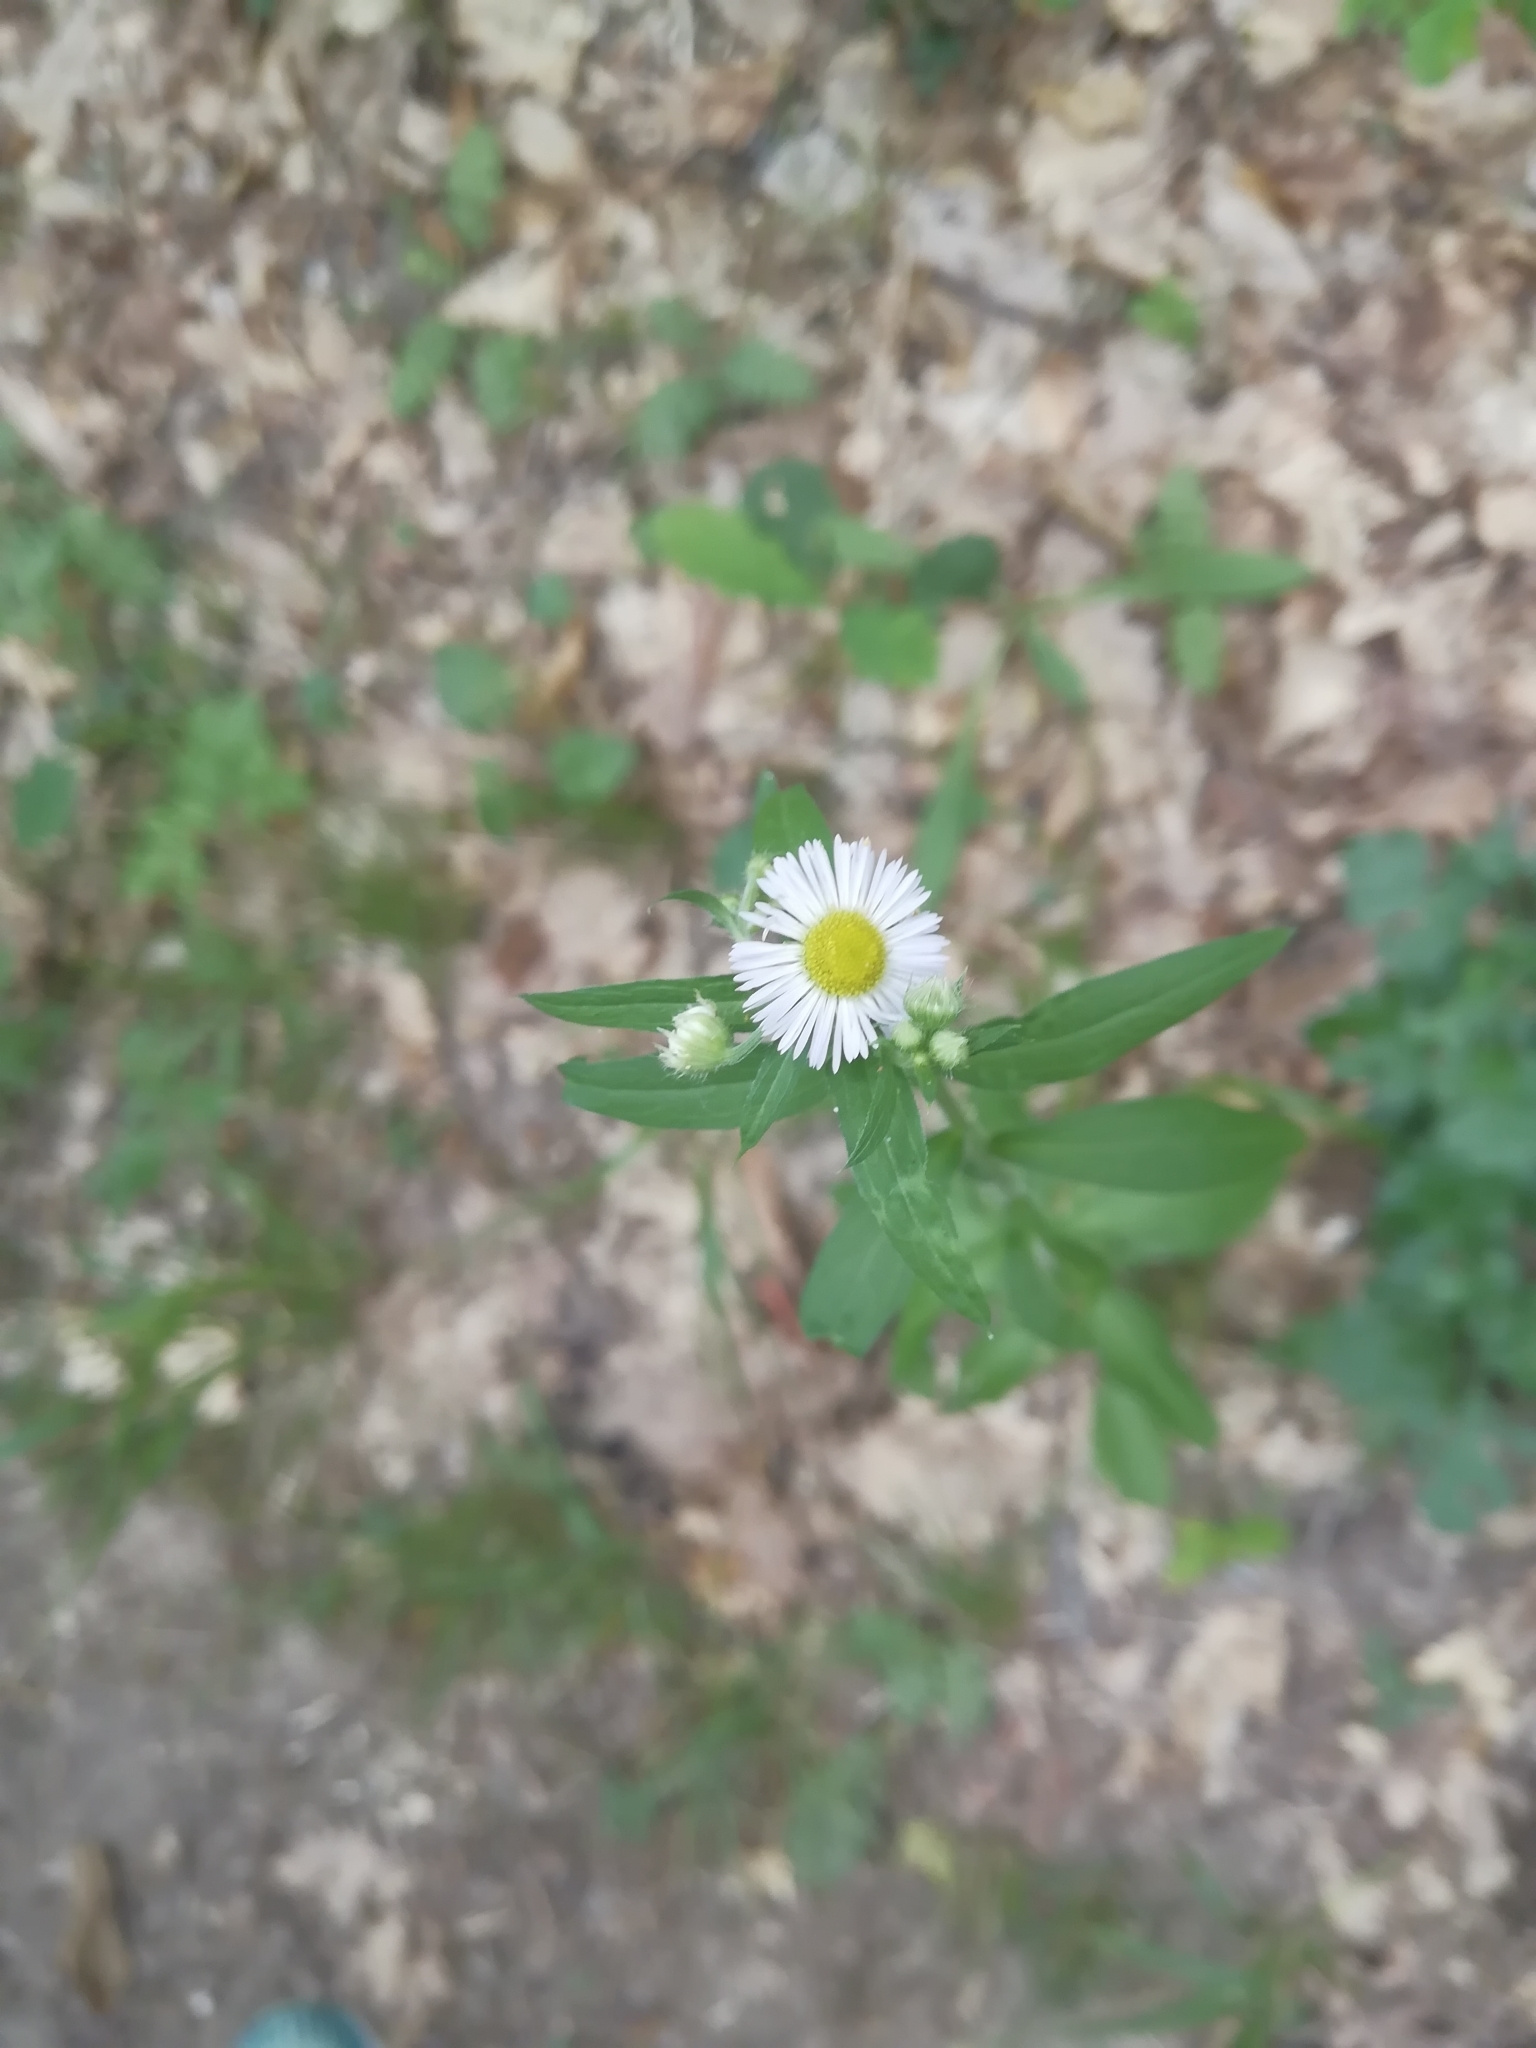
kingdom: Plantae
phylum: Tracheophyta
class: Magnoliopsida
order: Asterales
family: Asteraceae
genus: Erigeron
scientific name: Erigeron annuus
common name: Tall fleabane
